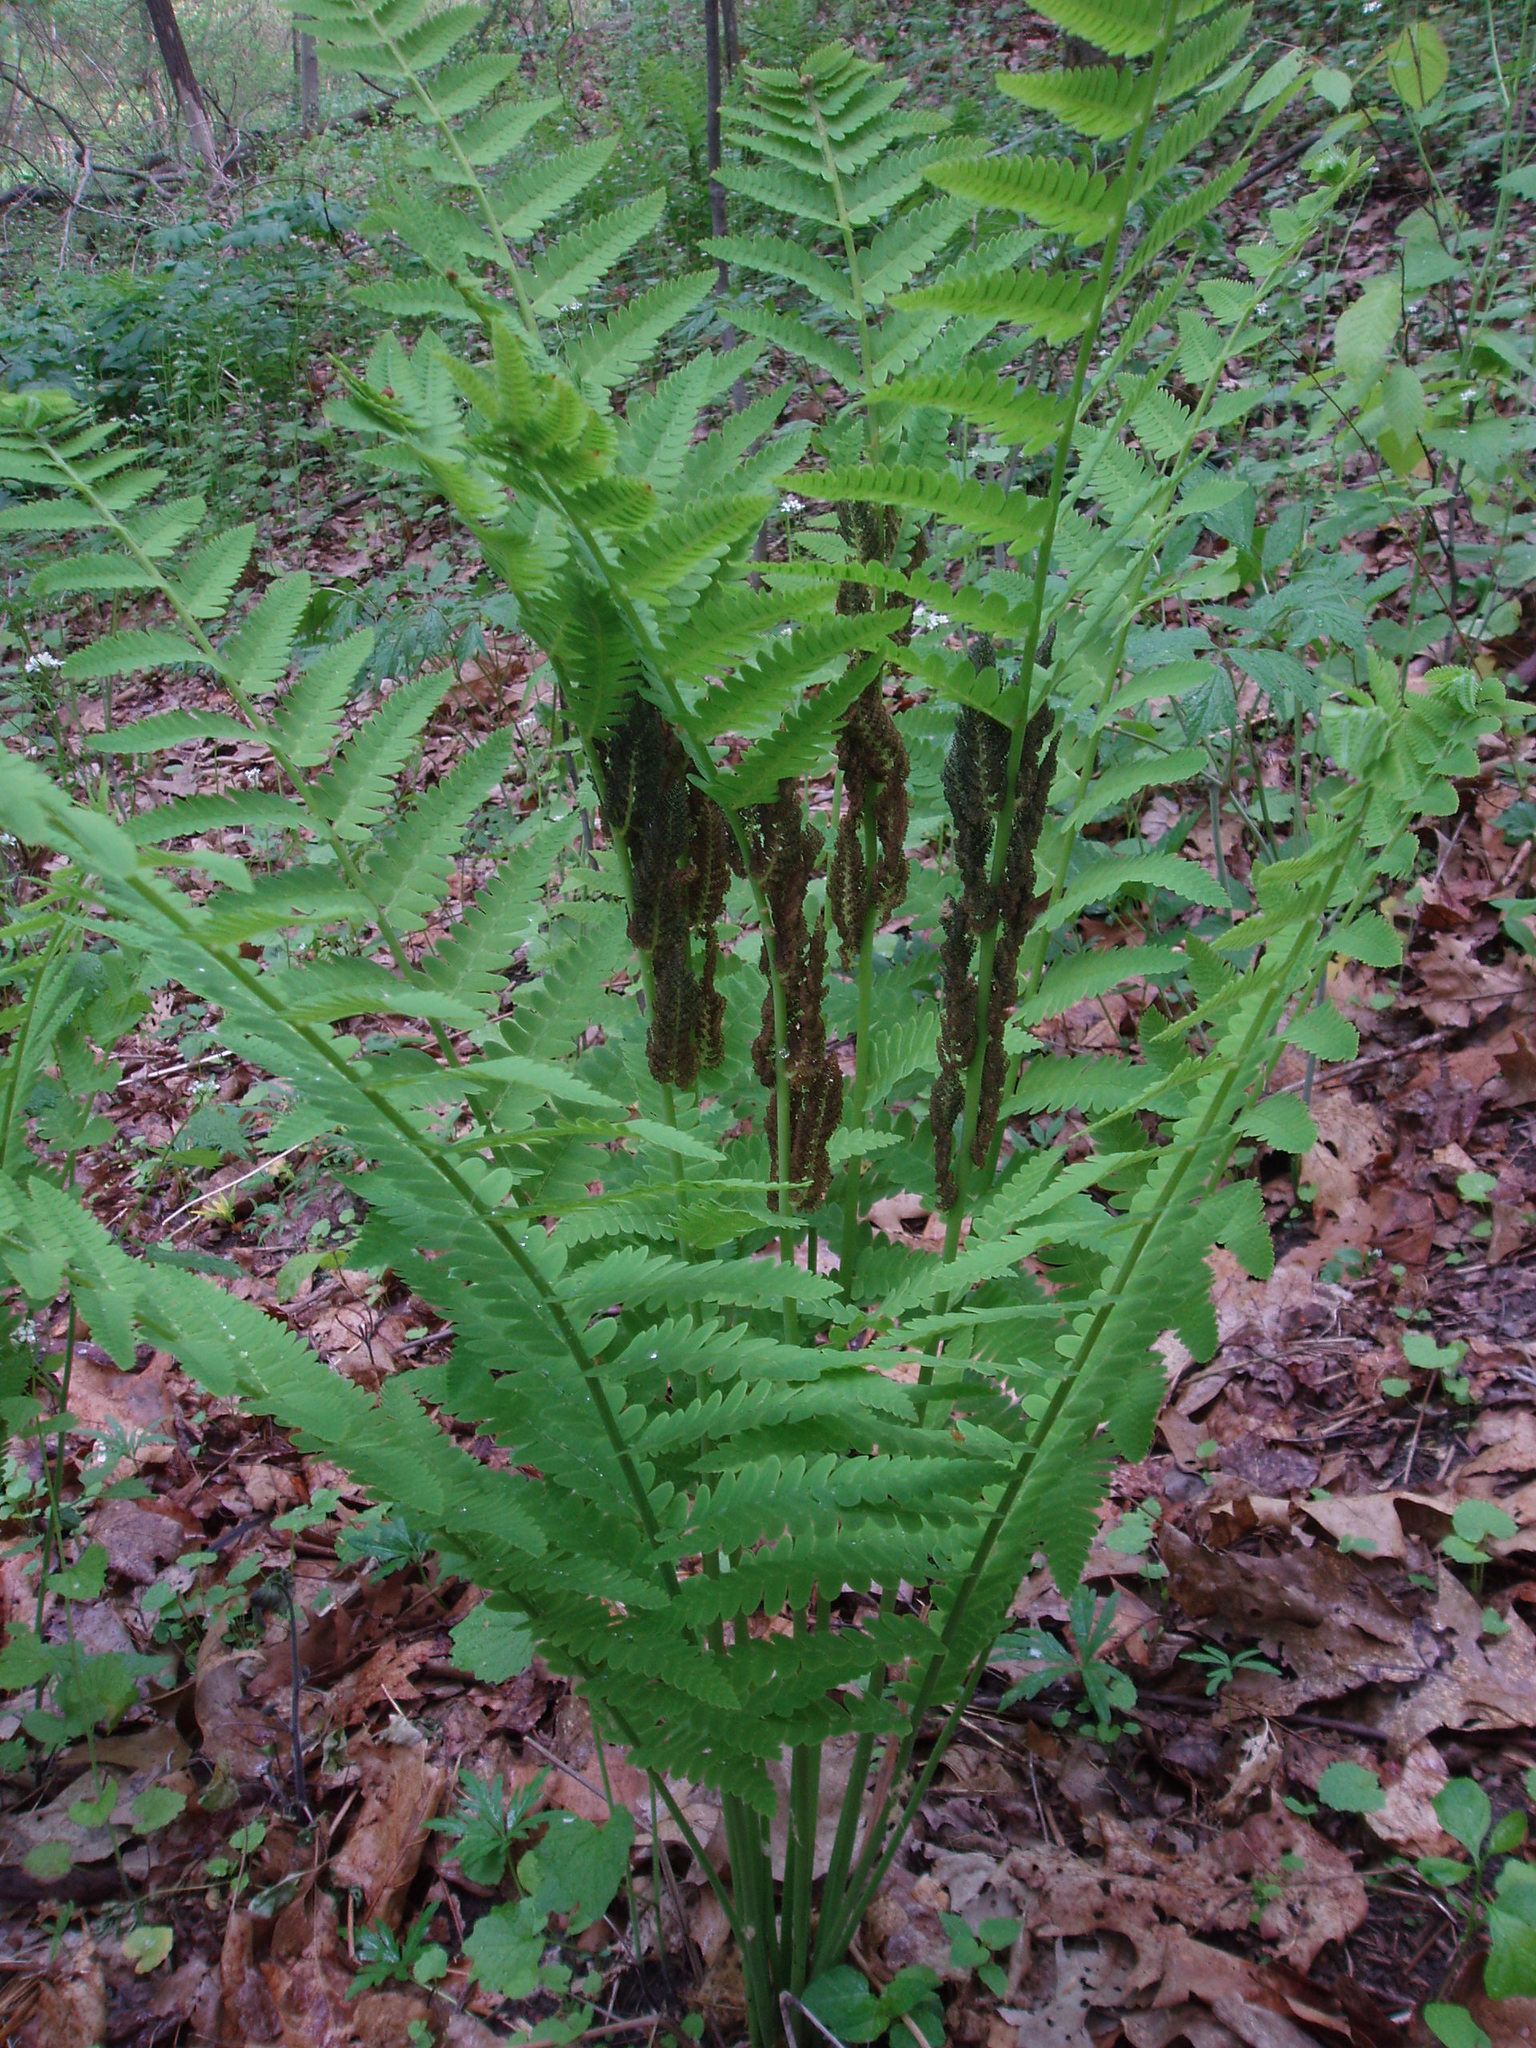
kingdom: Plantae
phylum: Tracheophyta
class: Polypodiopsida
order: Osmundales
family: Osmundaceae
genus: Claytosmunda
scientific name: Claytosmunda claytoniana
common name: Clayton's fern
